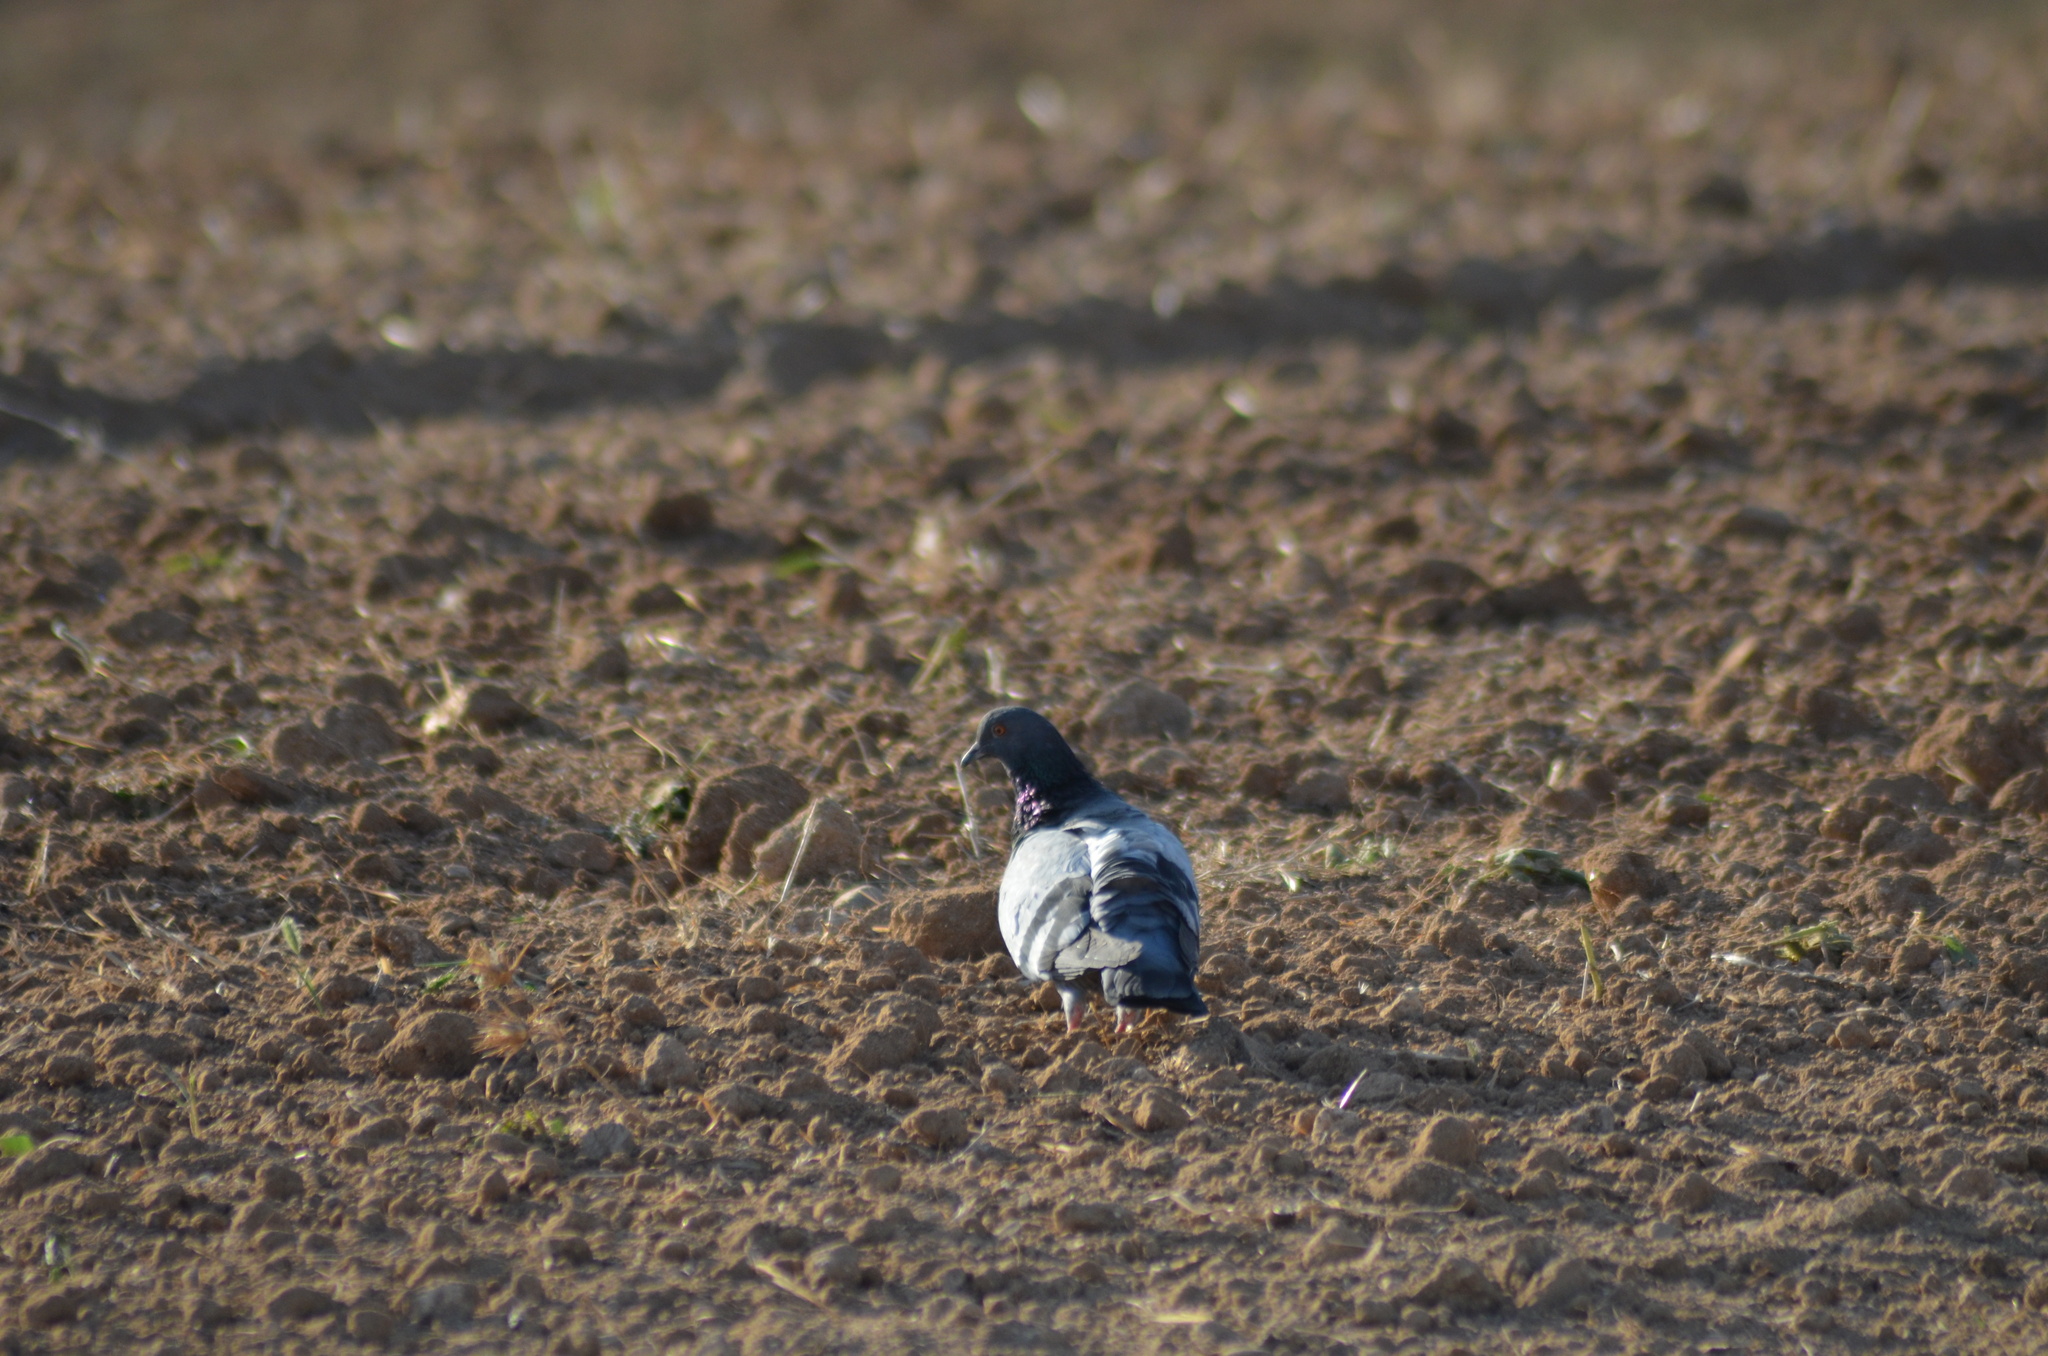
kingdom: Animalia
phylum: Chordata
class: Aves
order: Columbiformes
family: Columbidae
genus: Columba
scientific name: Columba livia
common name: Rock pigeon
